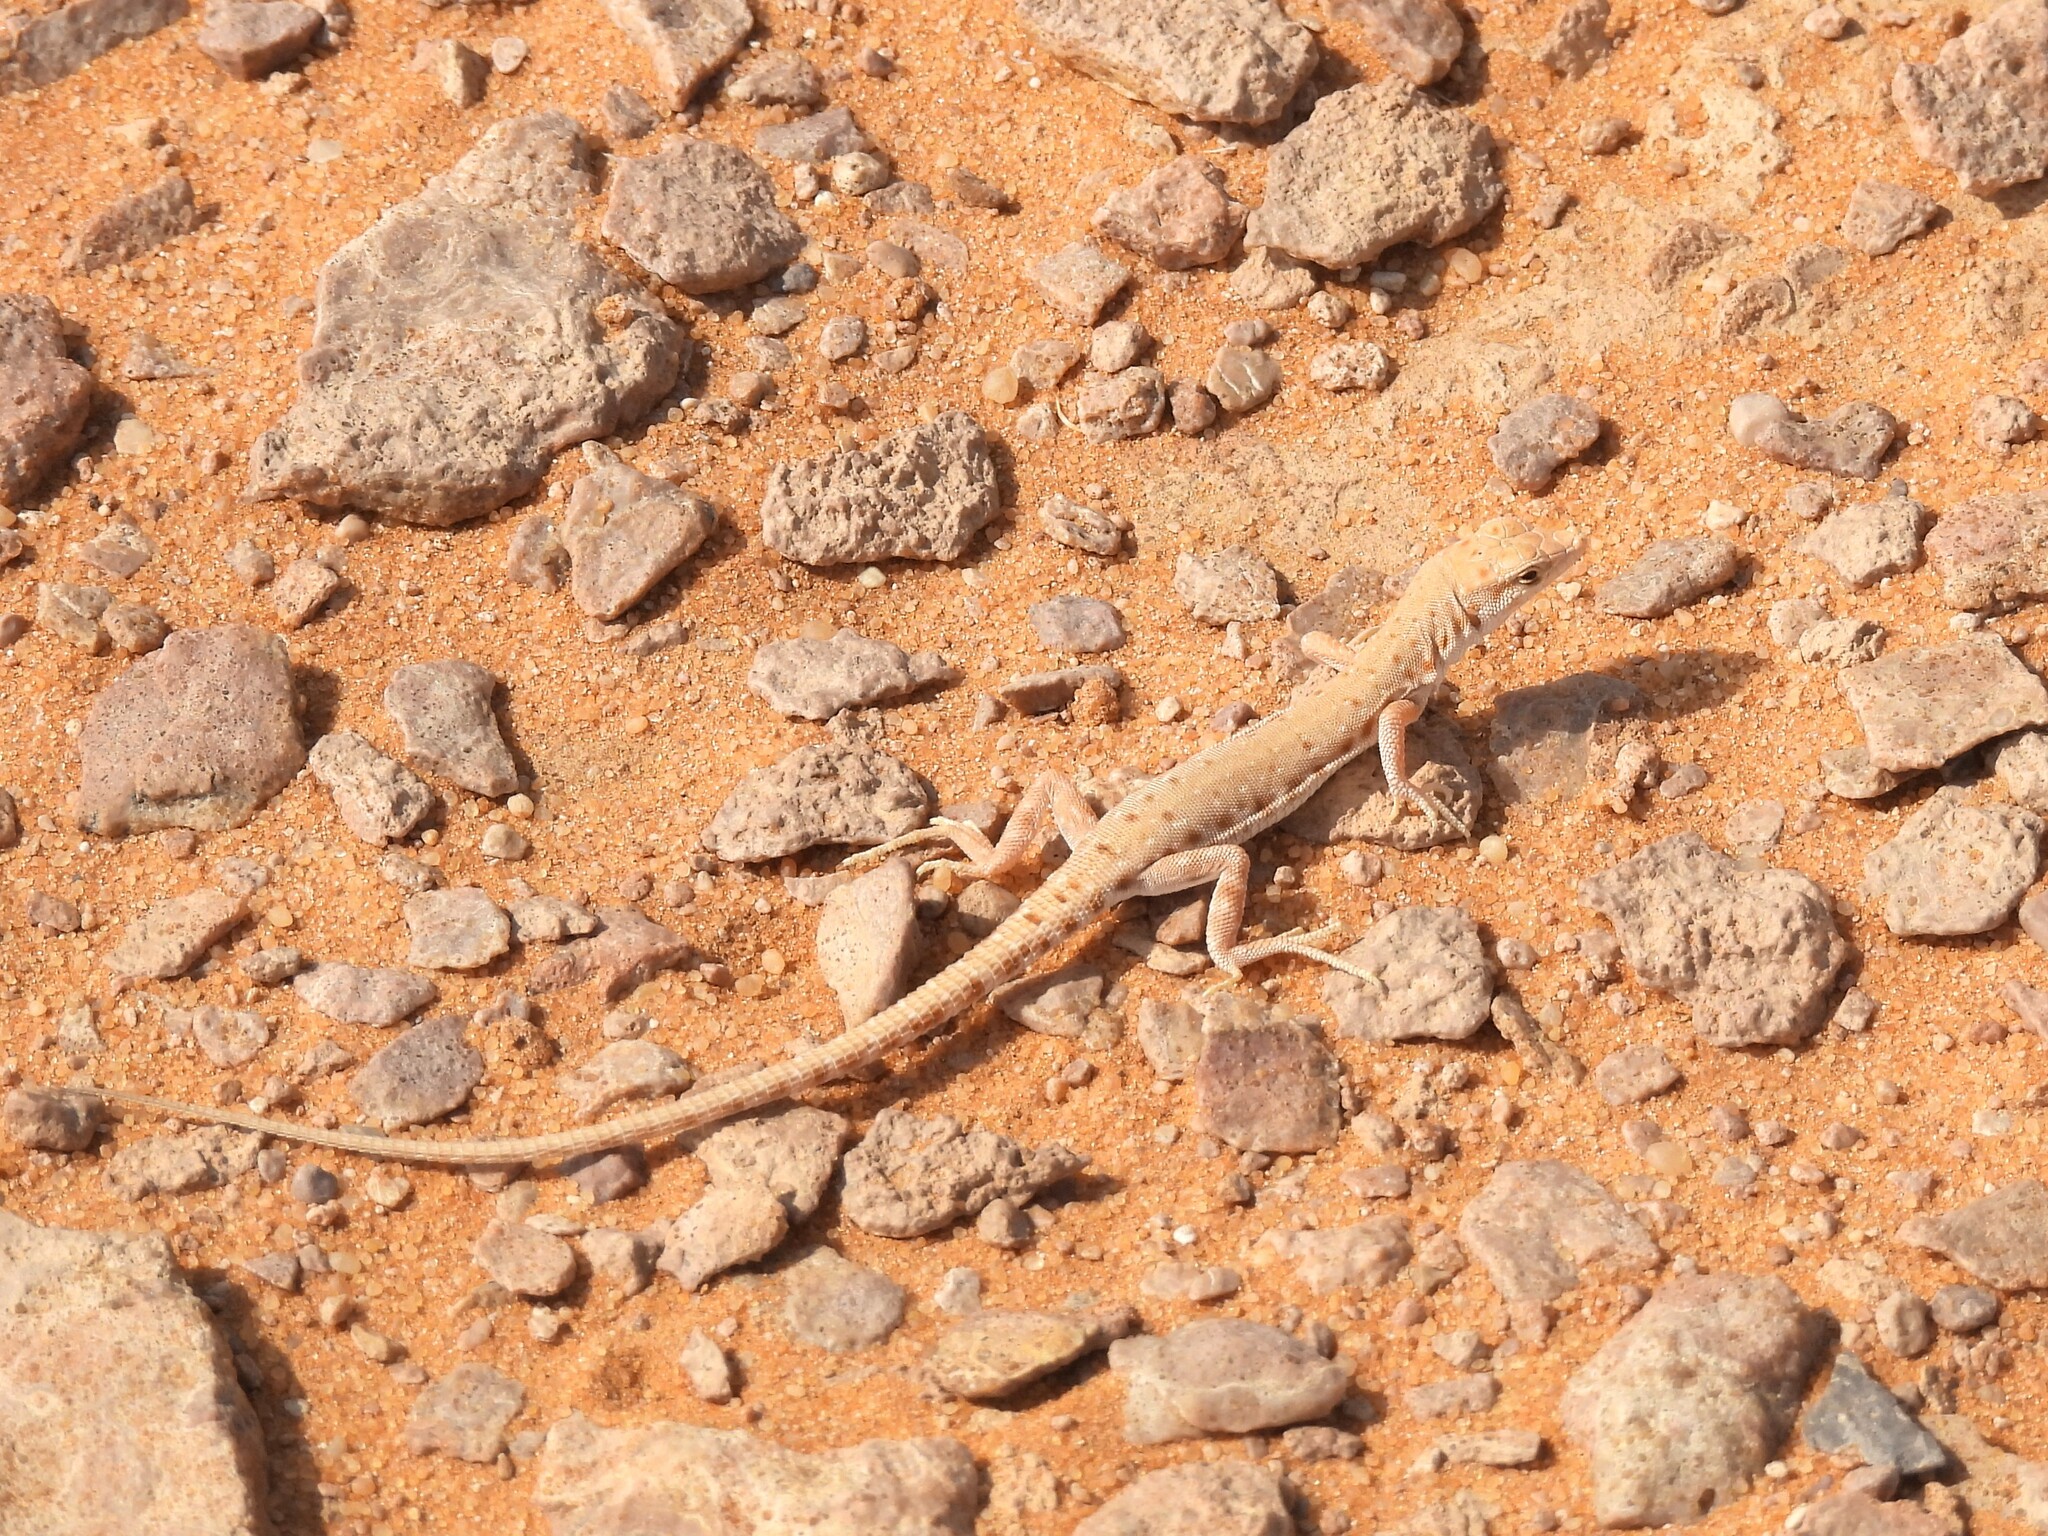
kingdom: Animalia
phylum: Chordata
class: Squamata
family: Lacertidae
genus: Mesalina
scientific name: Mesalina brevirostris
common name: Blanford's short-nosed desert lizard
